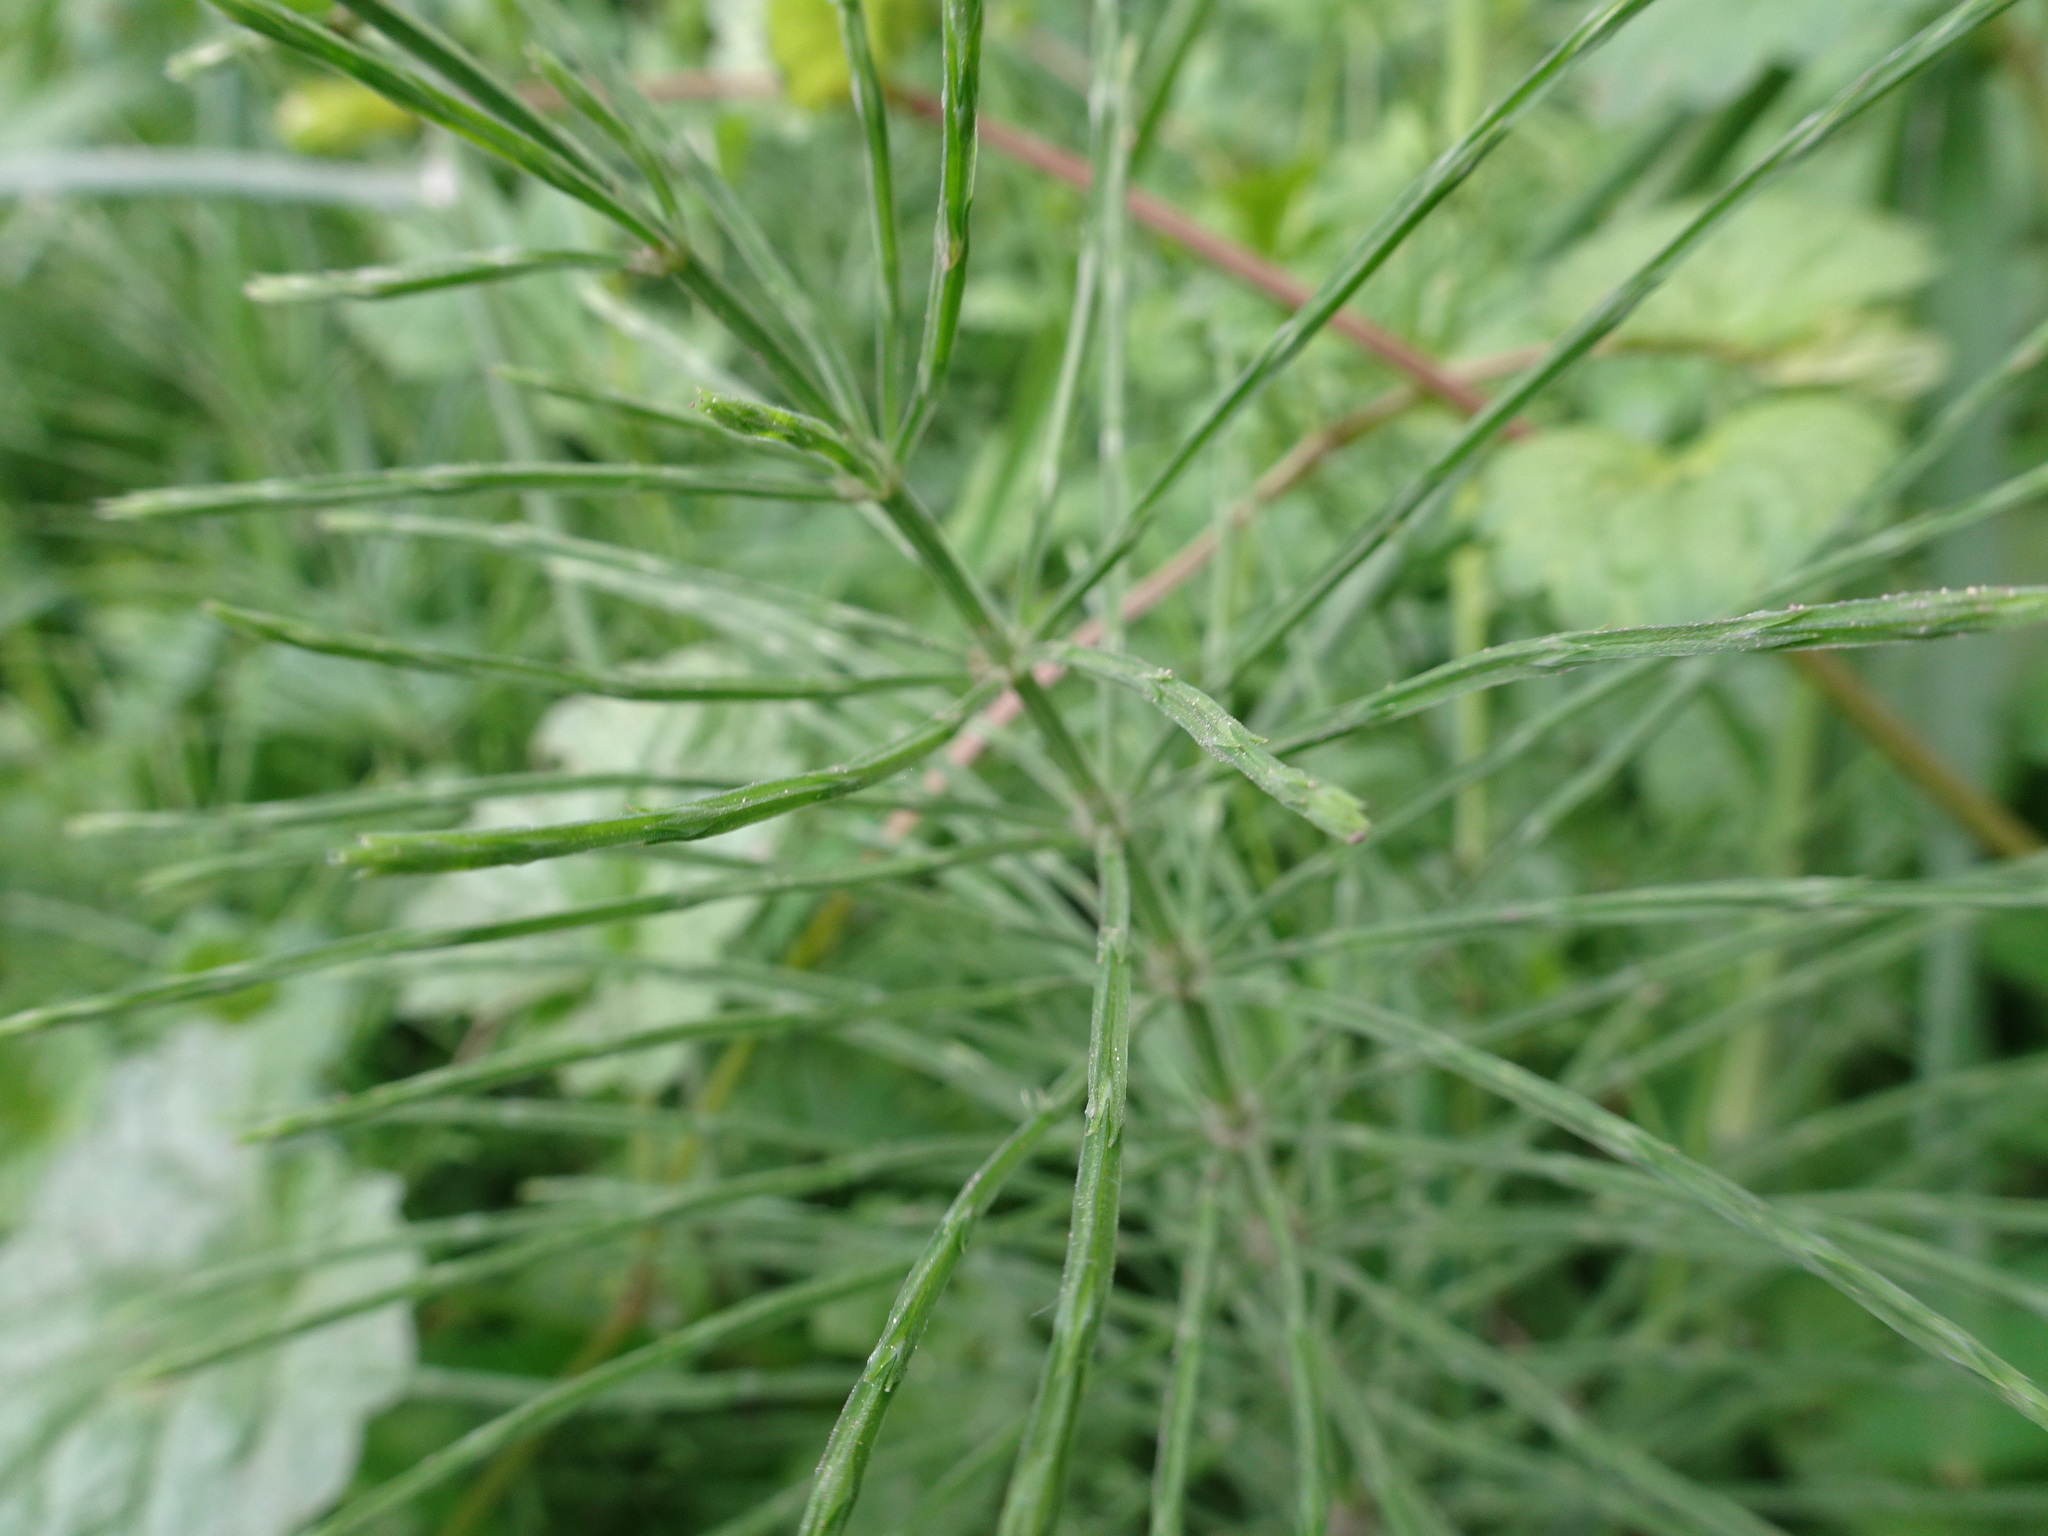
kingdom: Plantae
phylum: Tracheophyta
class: Polypodiopsida
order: Equisetales
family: Equisetaceae
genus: Equisetum
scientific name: Equisetum arvense
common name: Field horsetail
